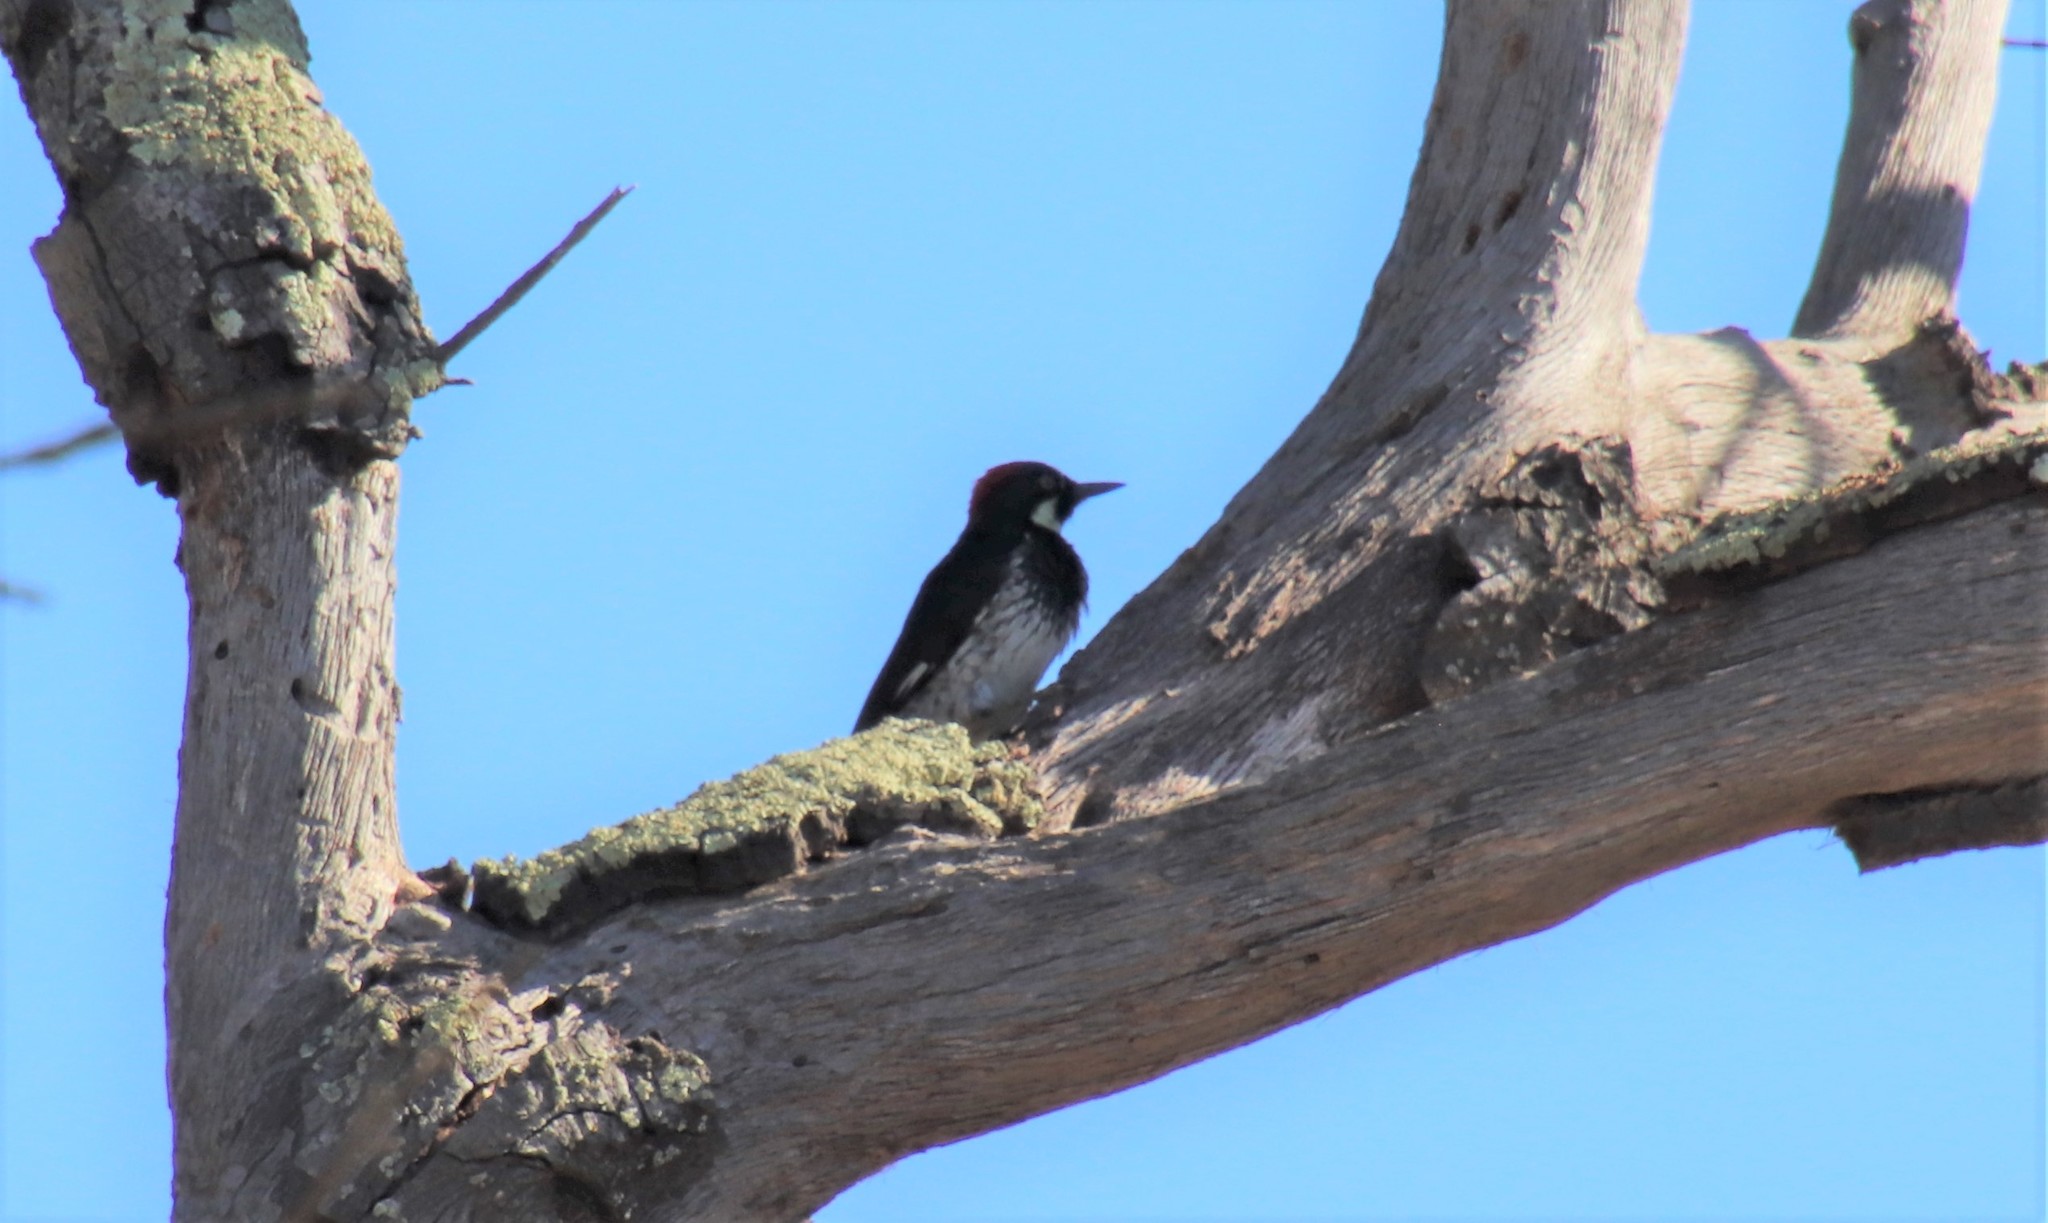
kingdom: Animalia
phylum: Chordata
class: Aves
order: Piciformes
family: Picidae
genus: Melanerpes
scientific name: Melanerpes formicivorus
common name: Acorn woodpecker
